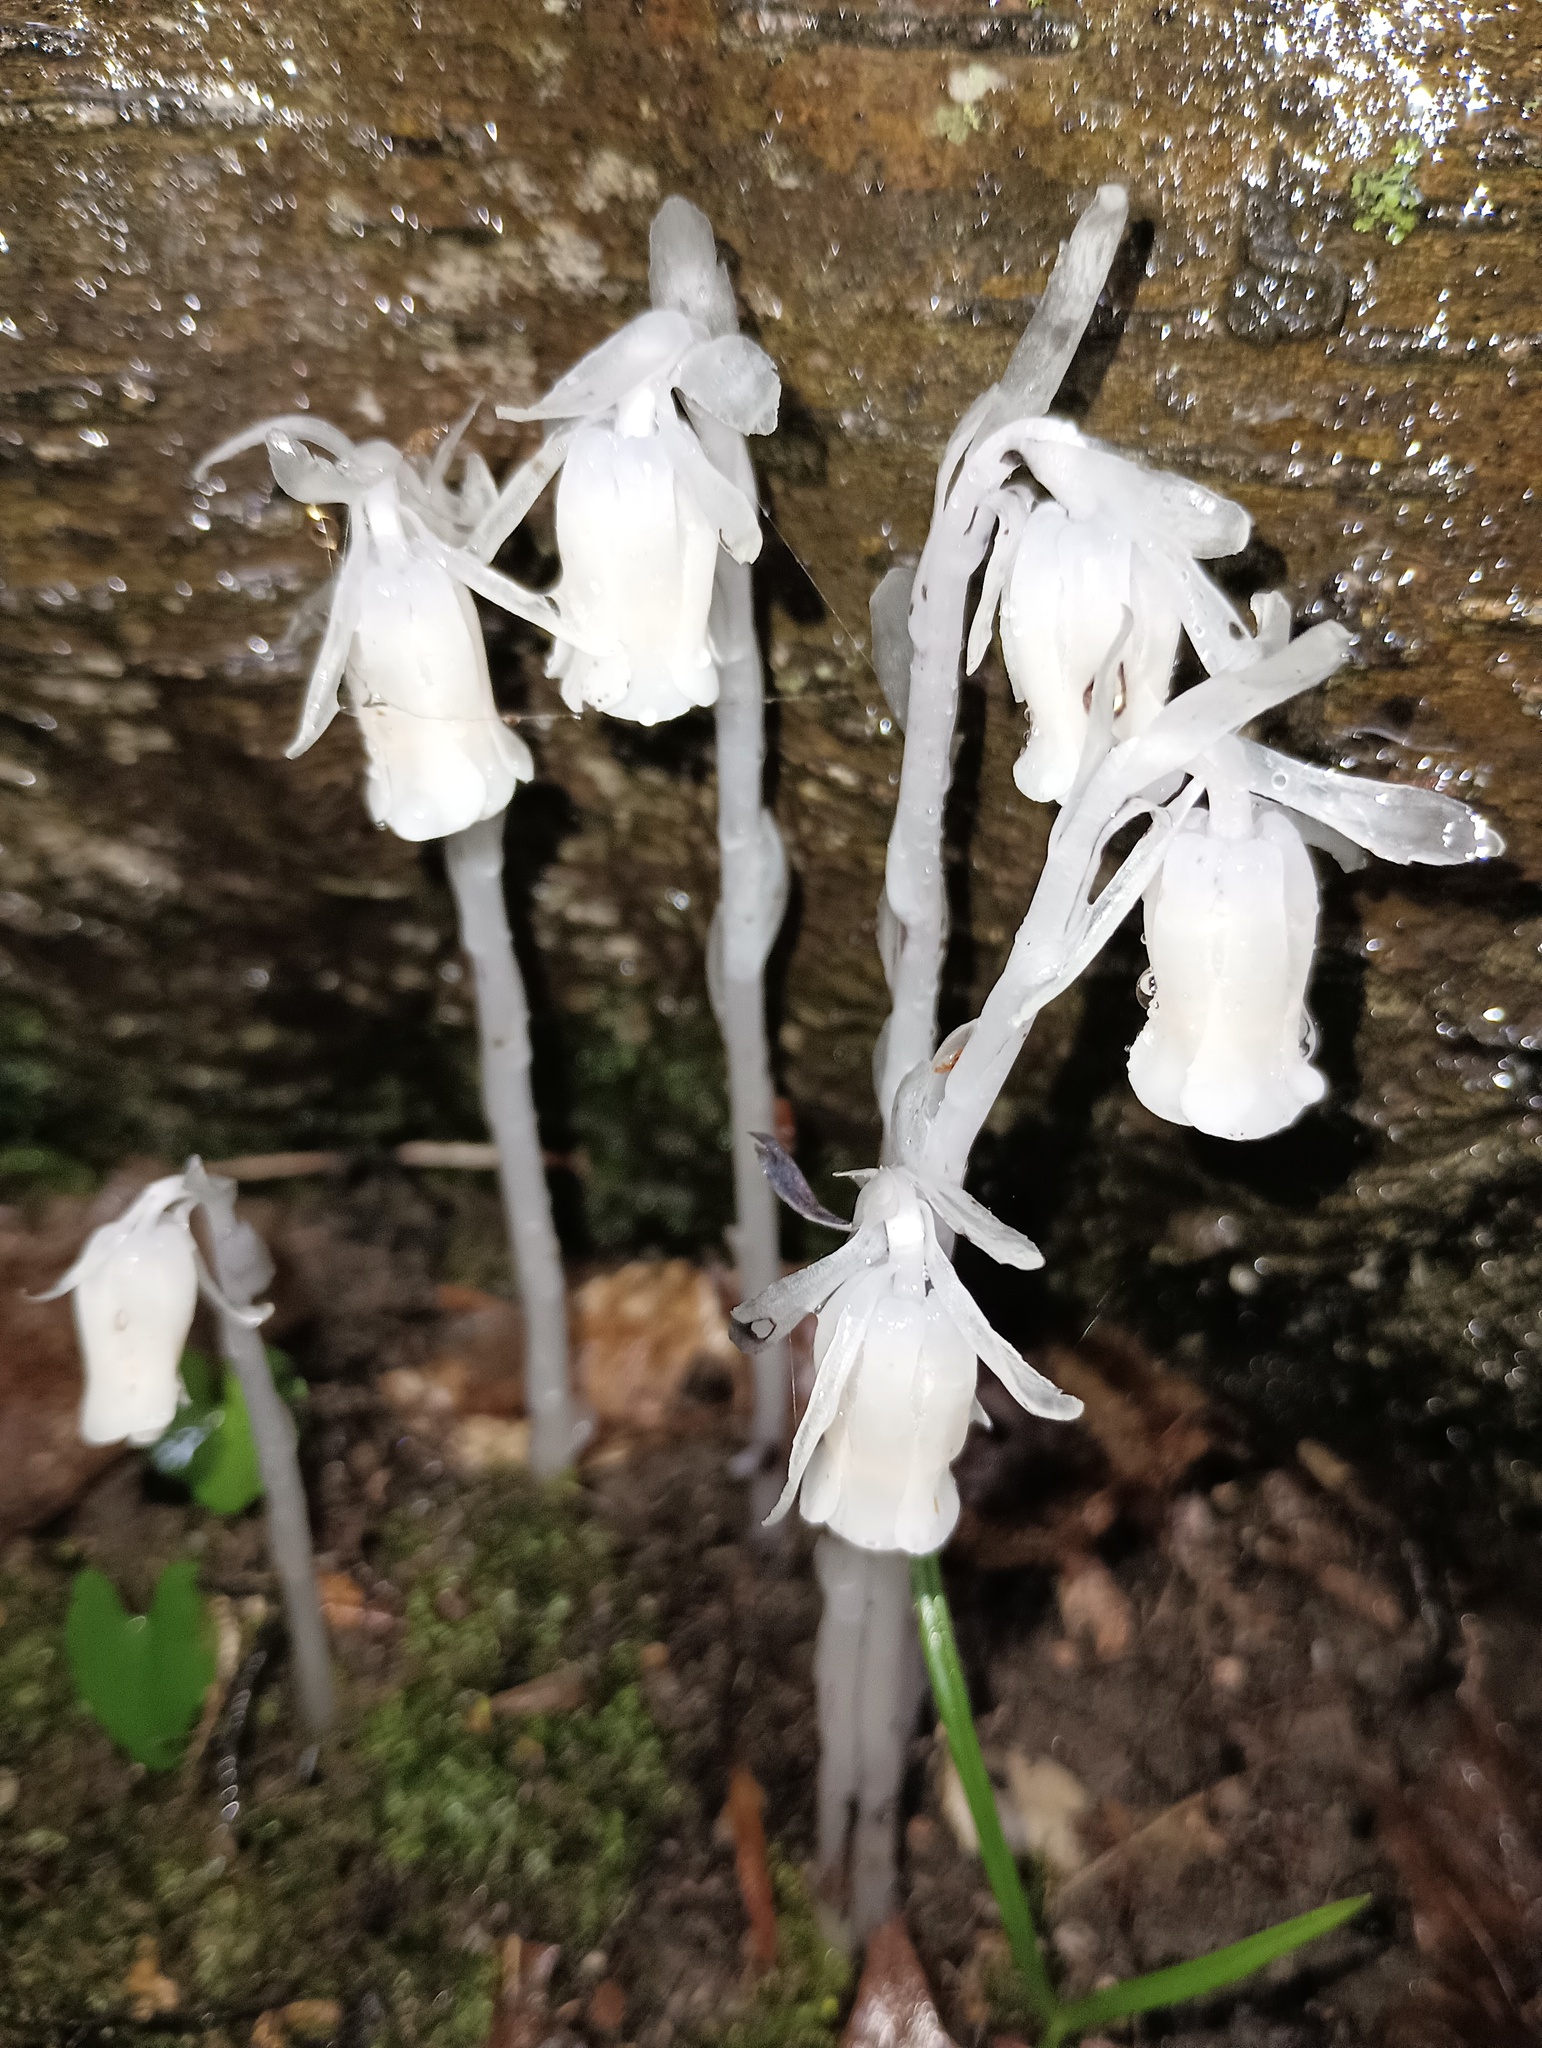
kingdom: Plantae
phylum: Tracheophyta
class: Magnoliopsida
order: Ericales
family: Ericaceae
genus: Monotropa
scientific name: Monotropa uniflora
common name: Convulsion root
